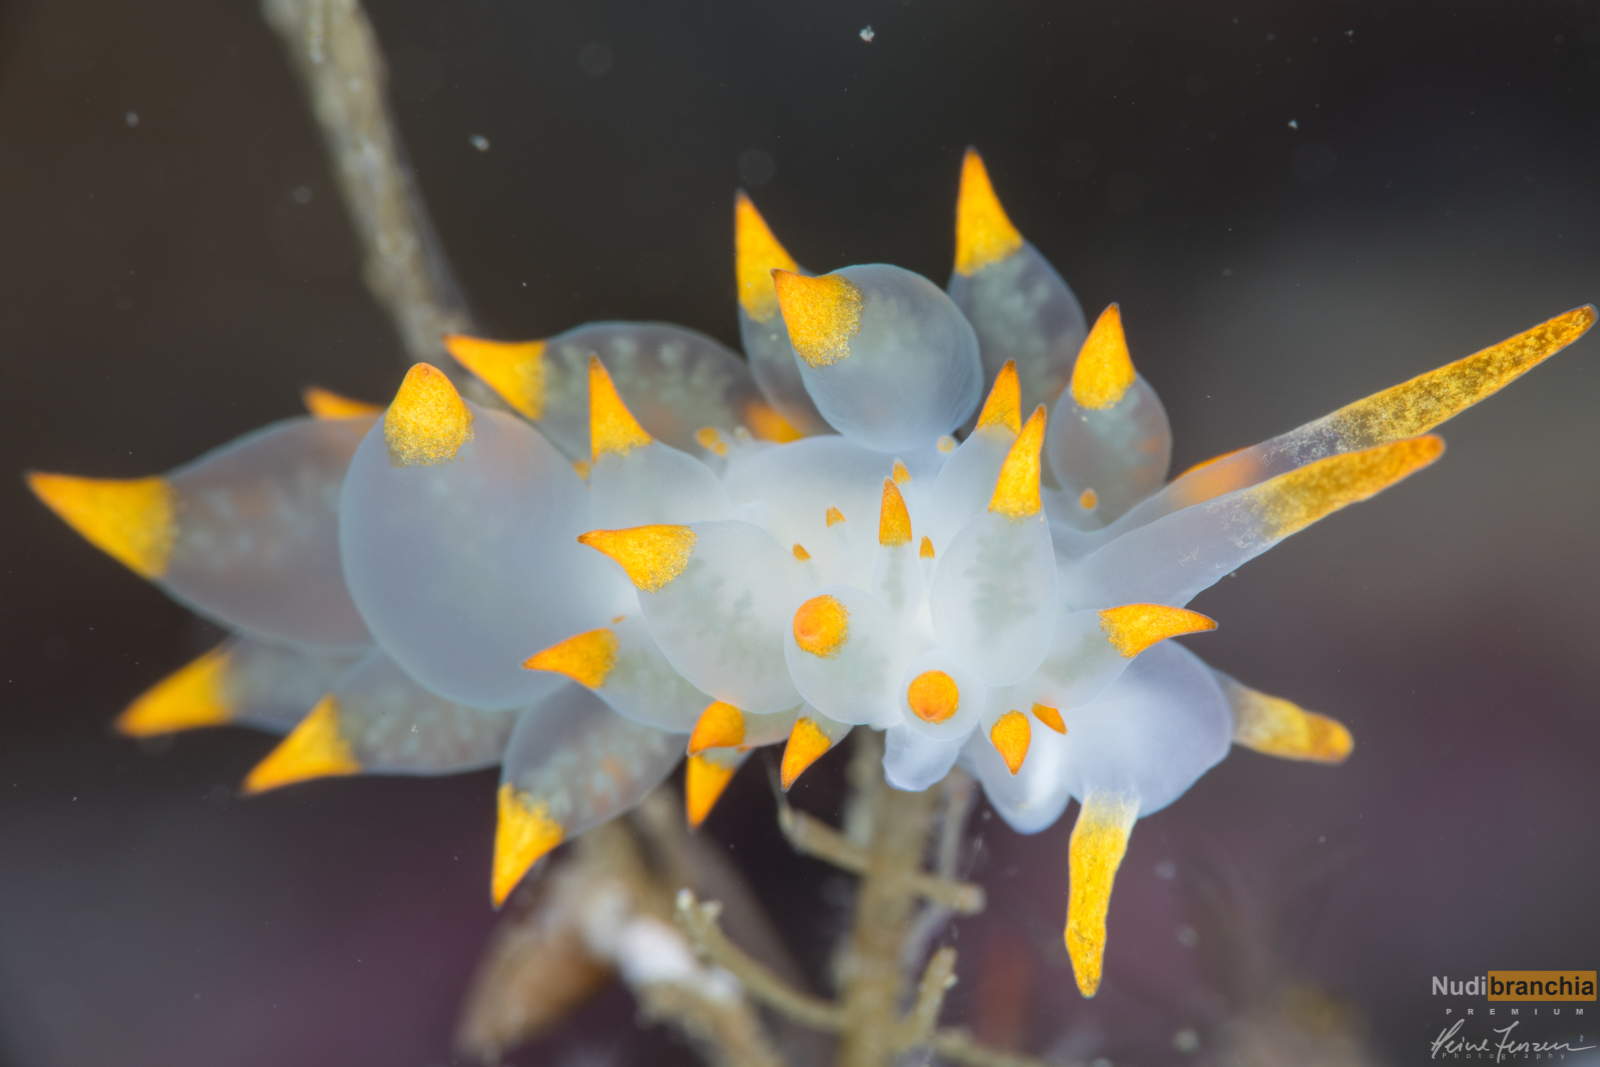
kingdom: Animalia
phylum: Mollusca
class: Gastropoda
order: Nudibranchia
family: Eubranchidae
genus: Amphorina
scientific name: Amphorina farrani
